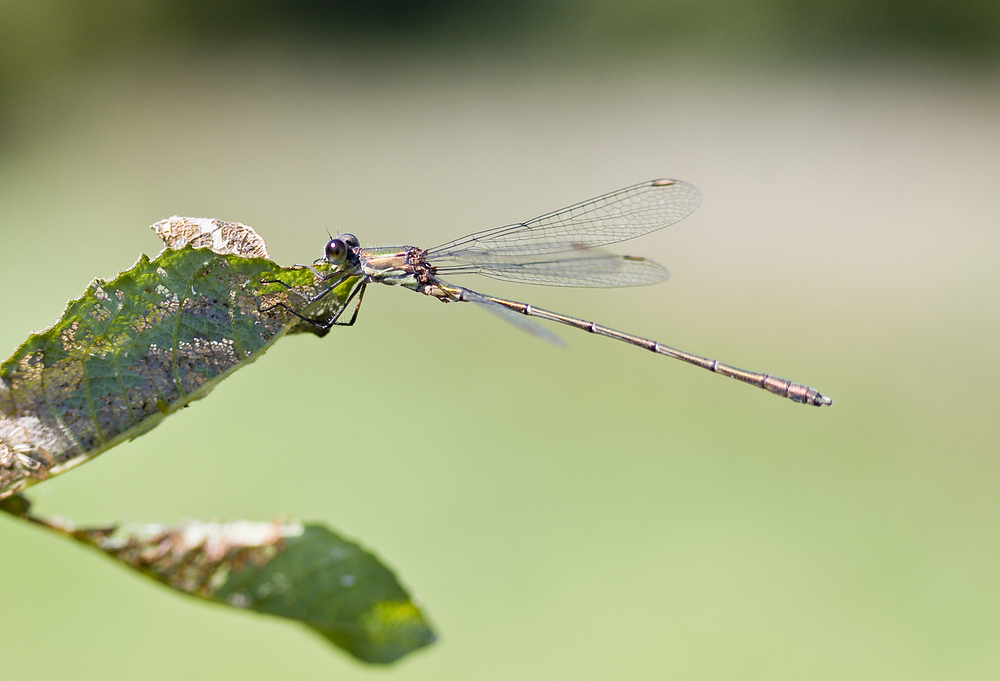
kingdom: Animalia
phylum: Arthropoda
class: Insecta
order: Odonata
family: Lestidae
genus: Chalcolestes
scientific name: Chalcolestes viridis
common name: Green emerald damselfly
